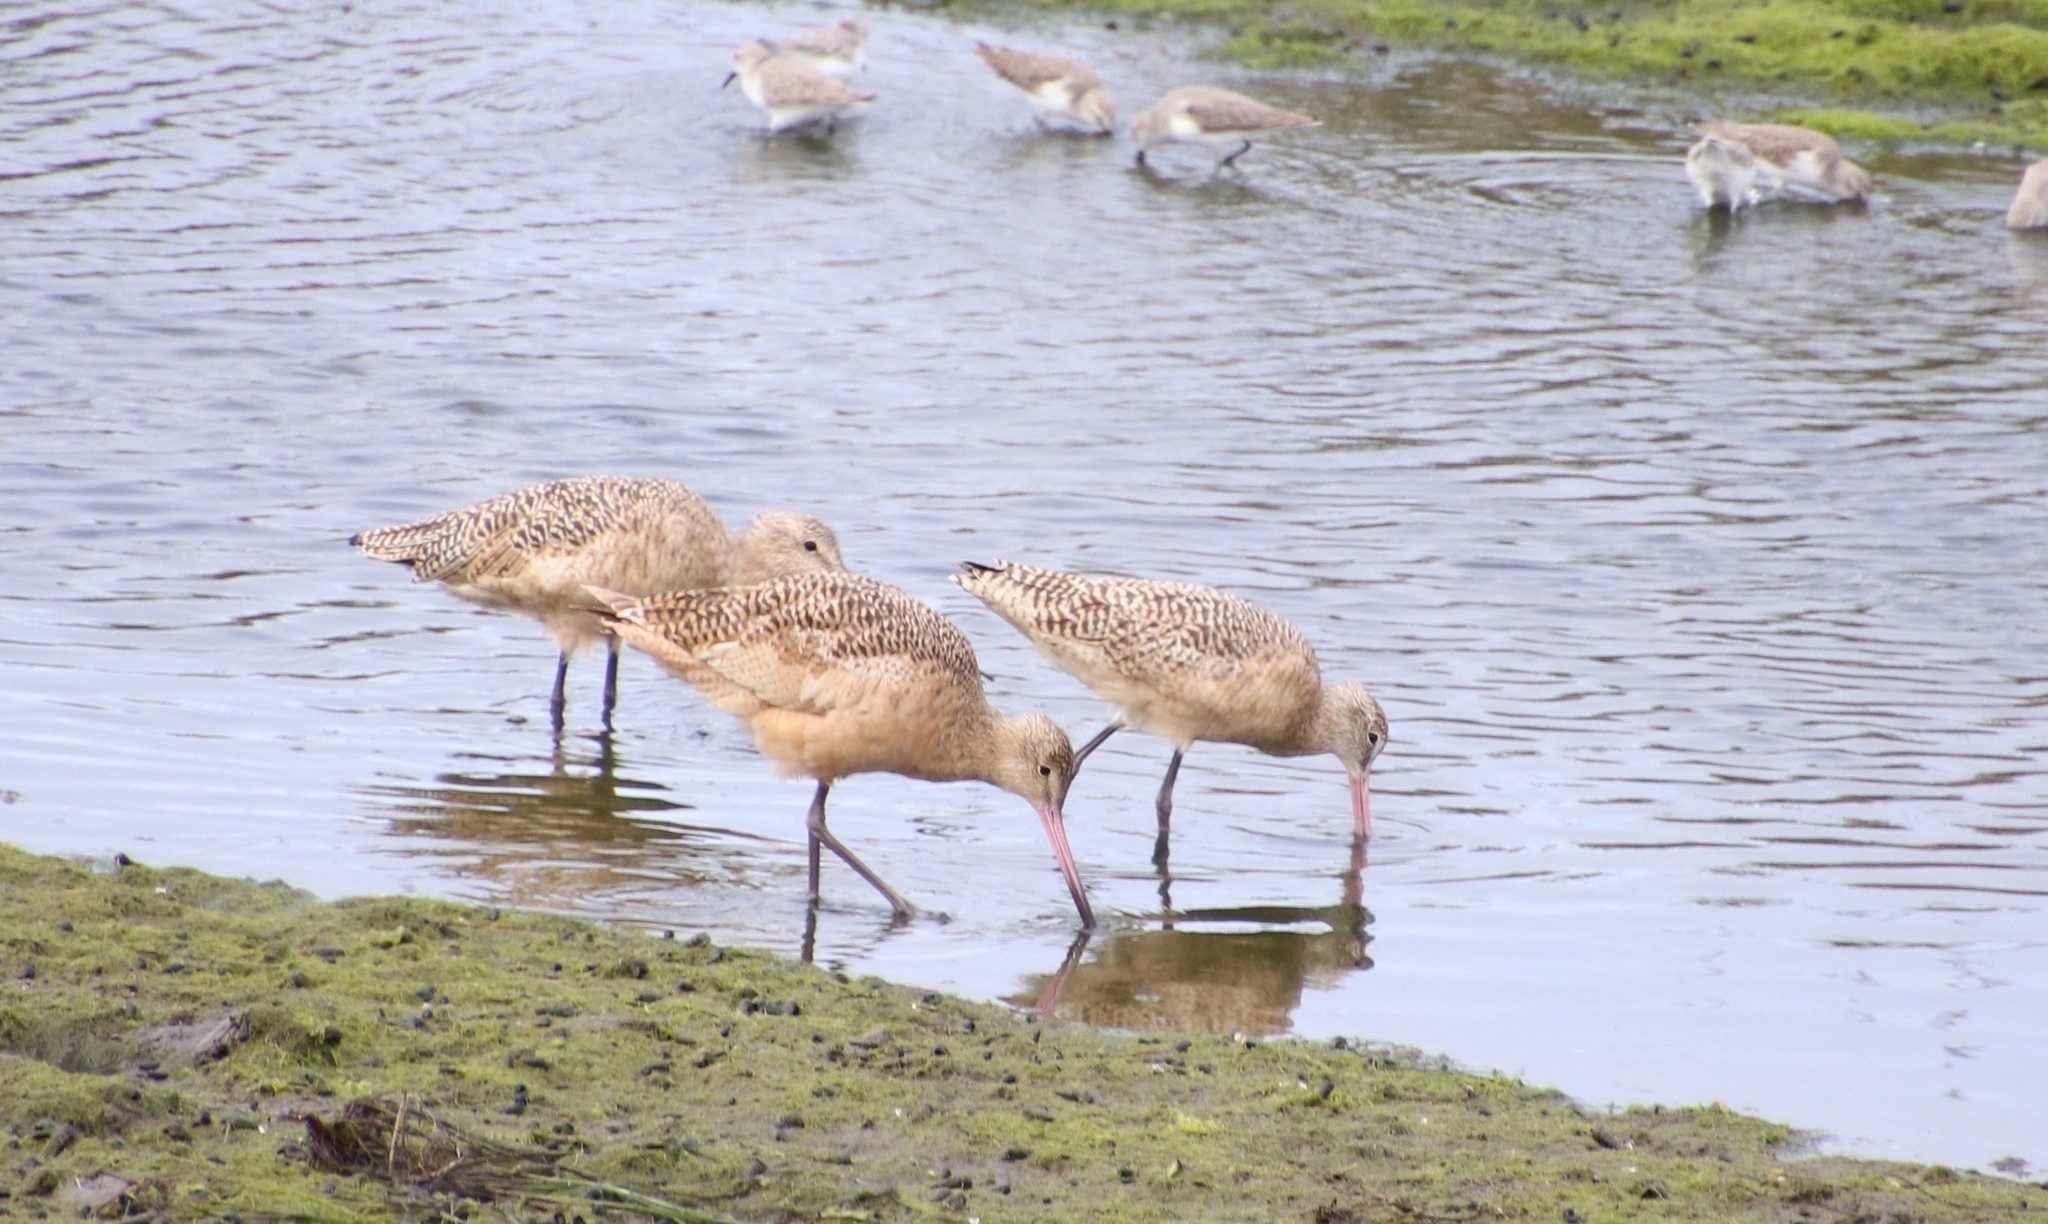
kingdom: Animalia
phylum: Chordata
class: Aves
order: Charadriiformes
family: Scolopacidae
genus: Limosa
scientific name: Limosa fedoa
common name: Marbled godwit
